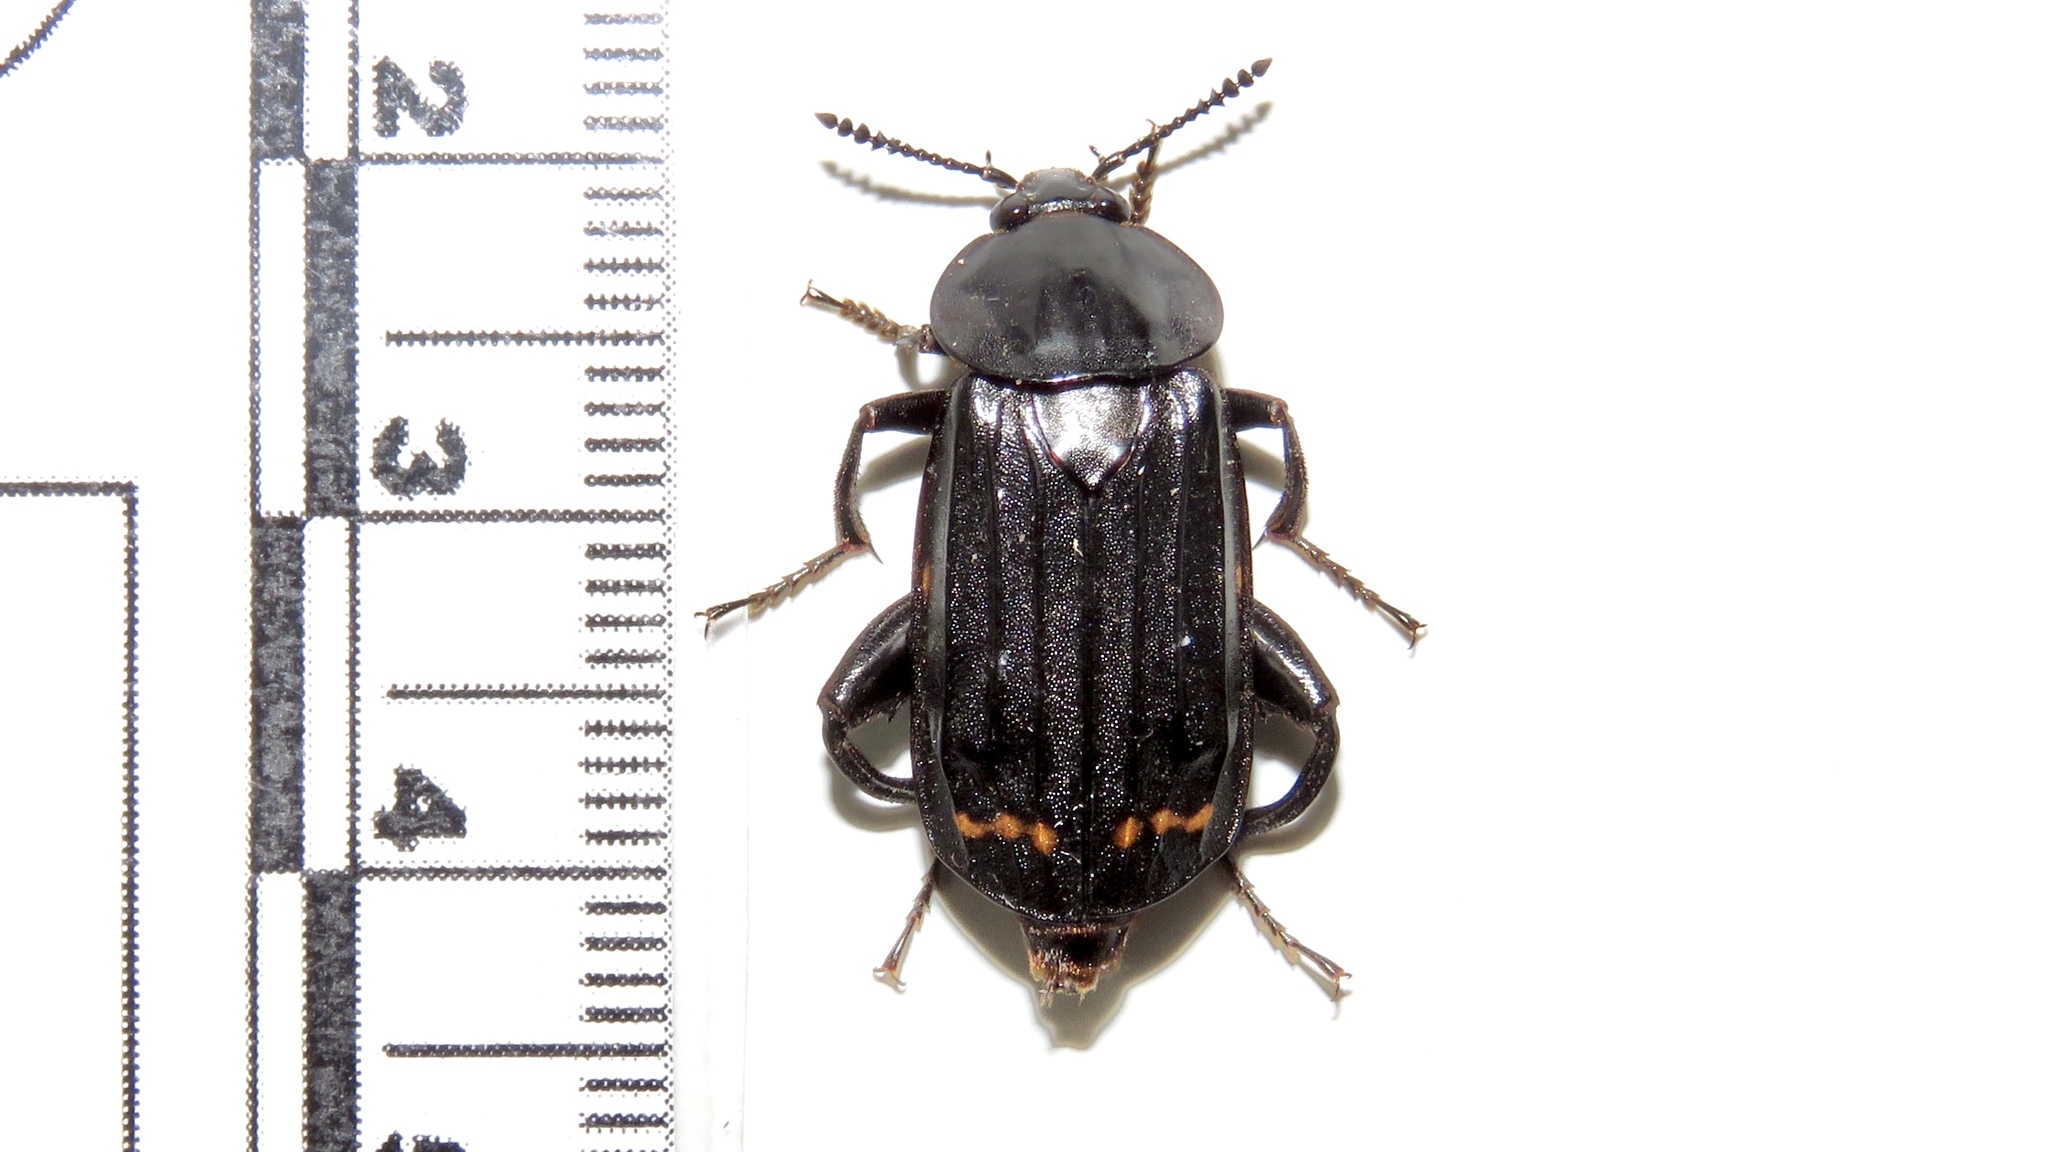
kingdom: Animalia
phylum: Arthropoda
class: Insecta
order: Coleoptera
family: Staphylinidae
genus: Necrodes
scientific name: Necrodes surinamensis
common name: Red-lined carrion beetle
